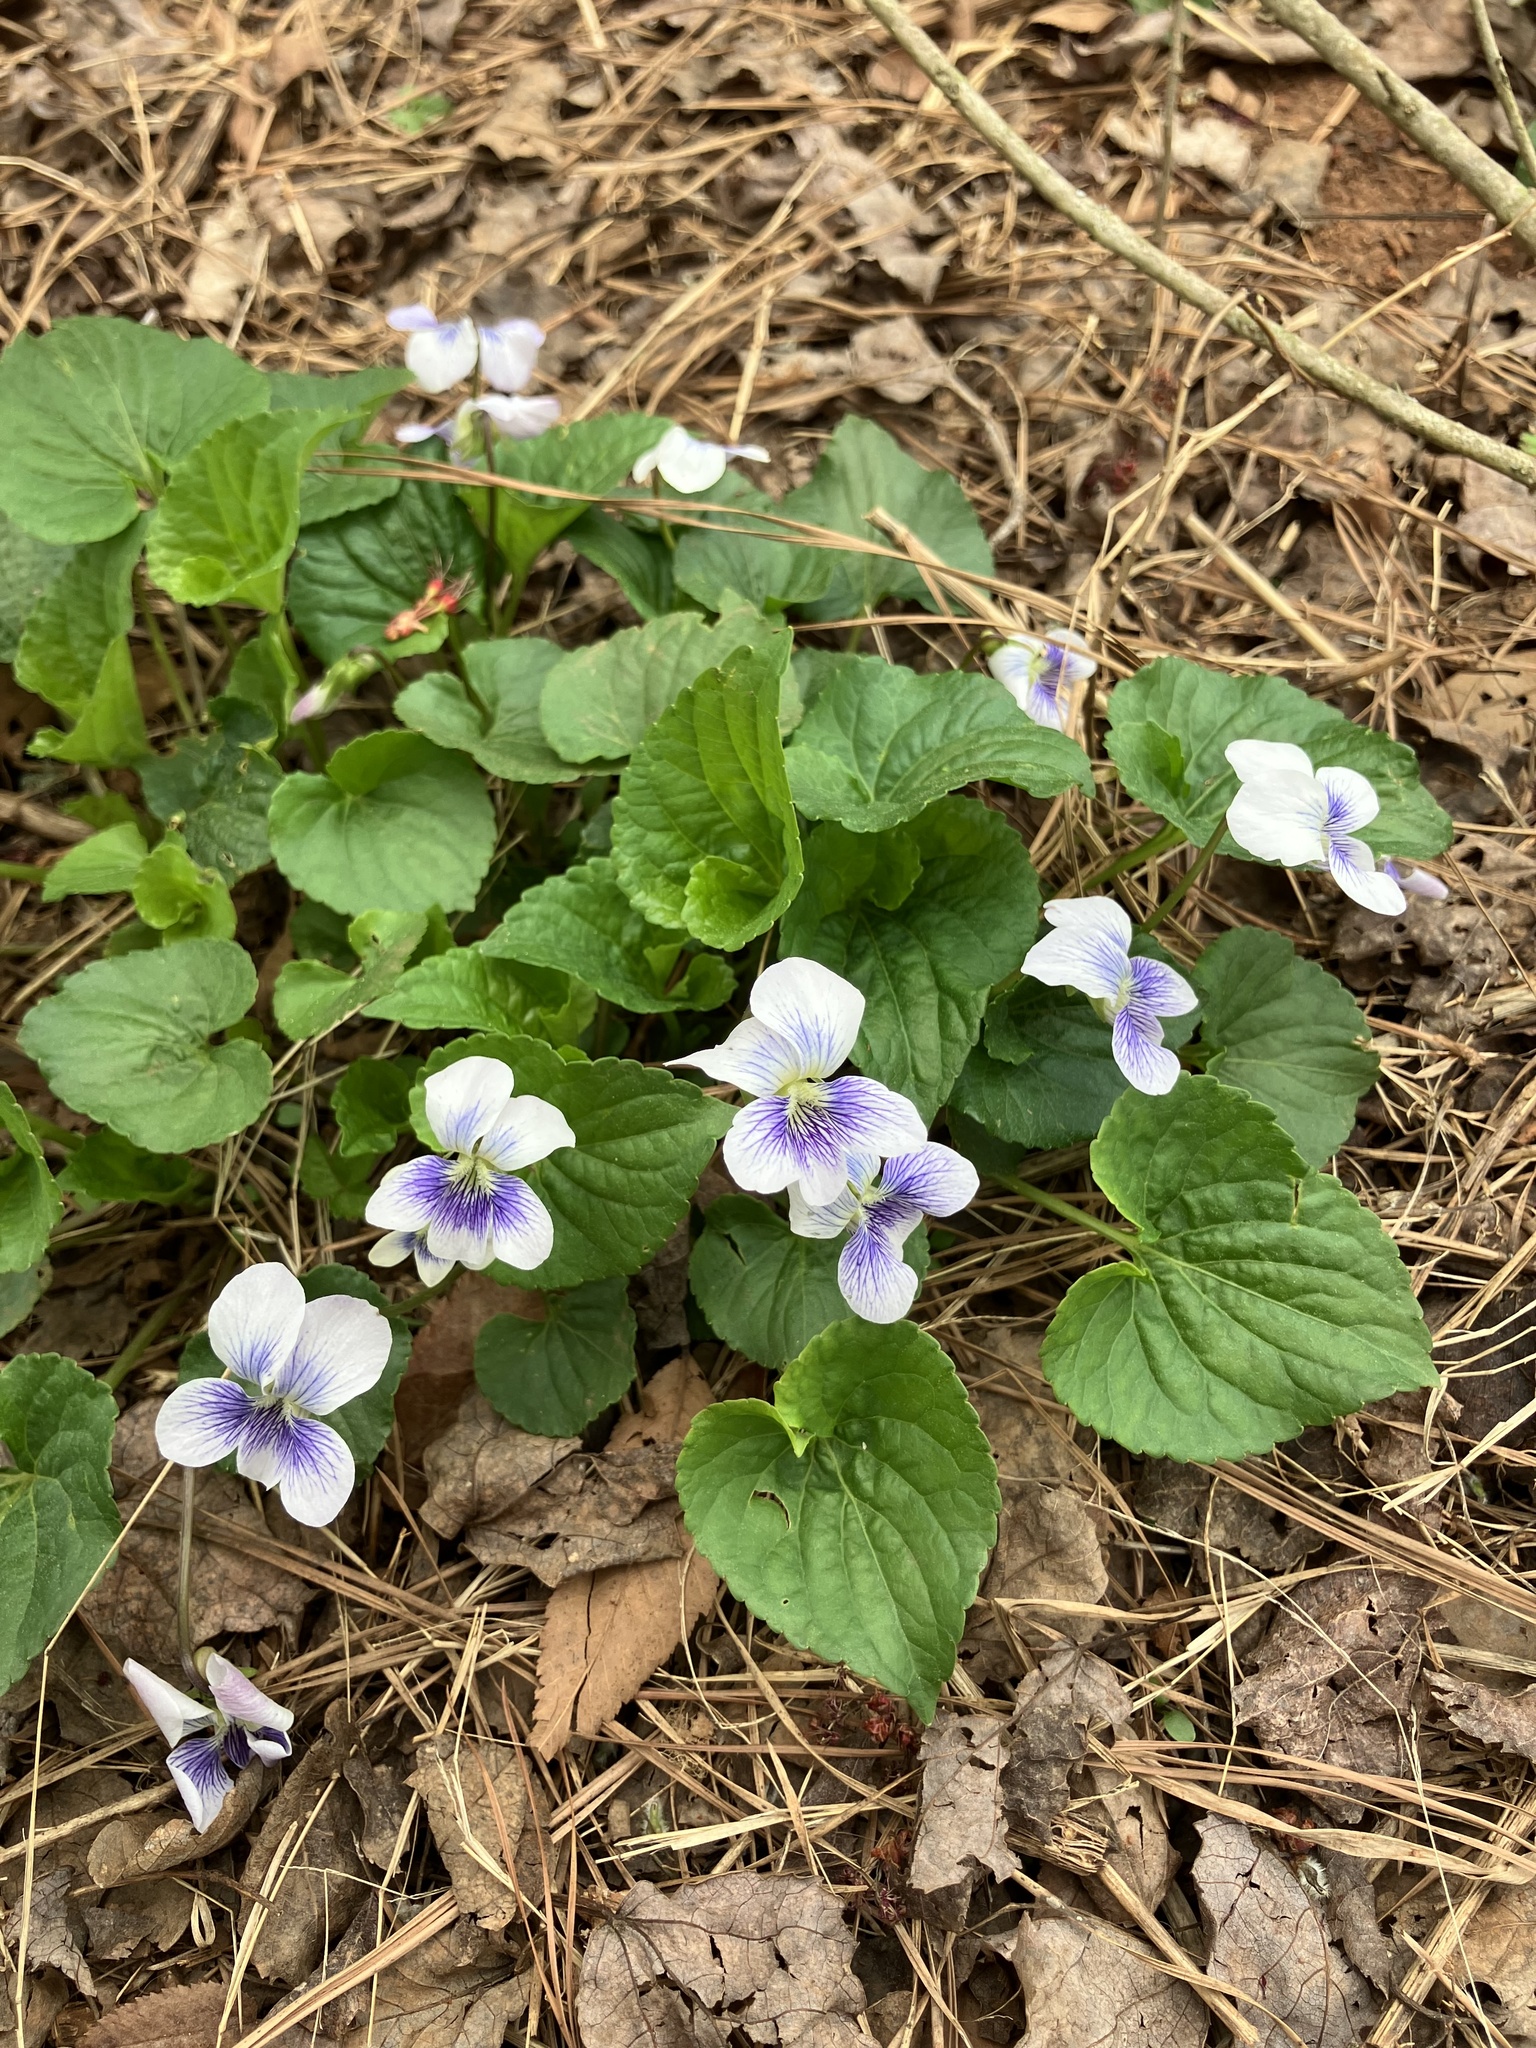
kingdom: Plantae
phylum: Tracheophyta
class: Magnoliopsida
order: Malpighiales
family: Violaceae
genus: Viola
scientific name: Viola communis
